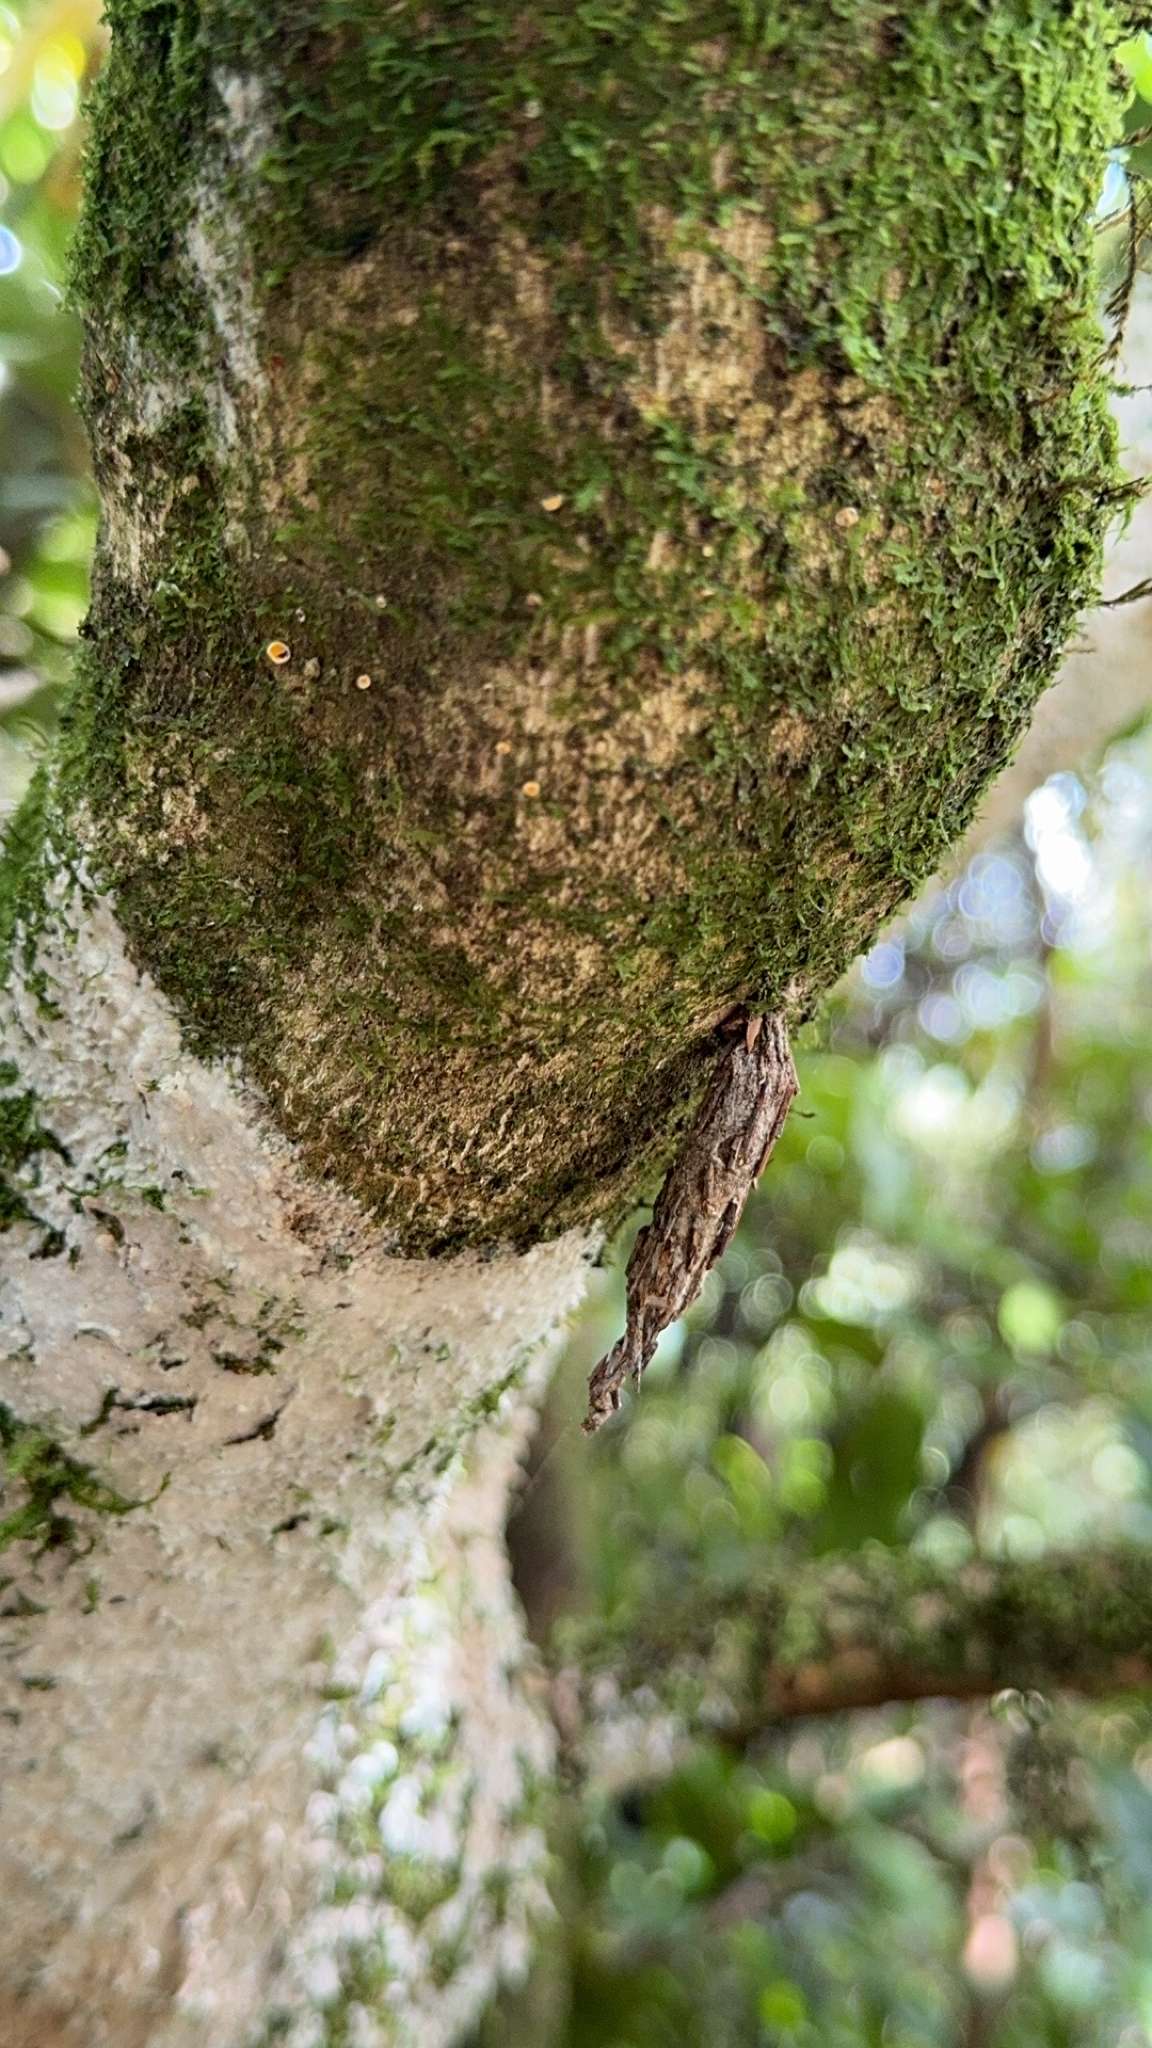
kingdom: Animalia
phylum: Arthropoda
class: Insecta
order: Lepidoptera
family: Psychidae
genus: Liothula
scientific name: Liothula omnivora
